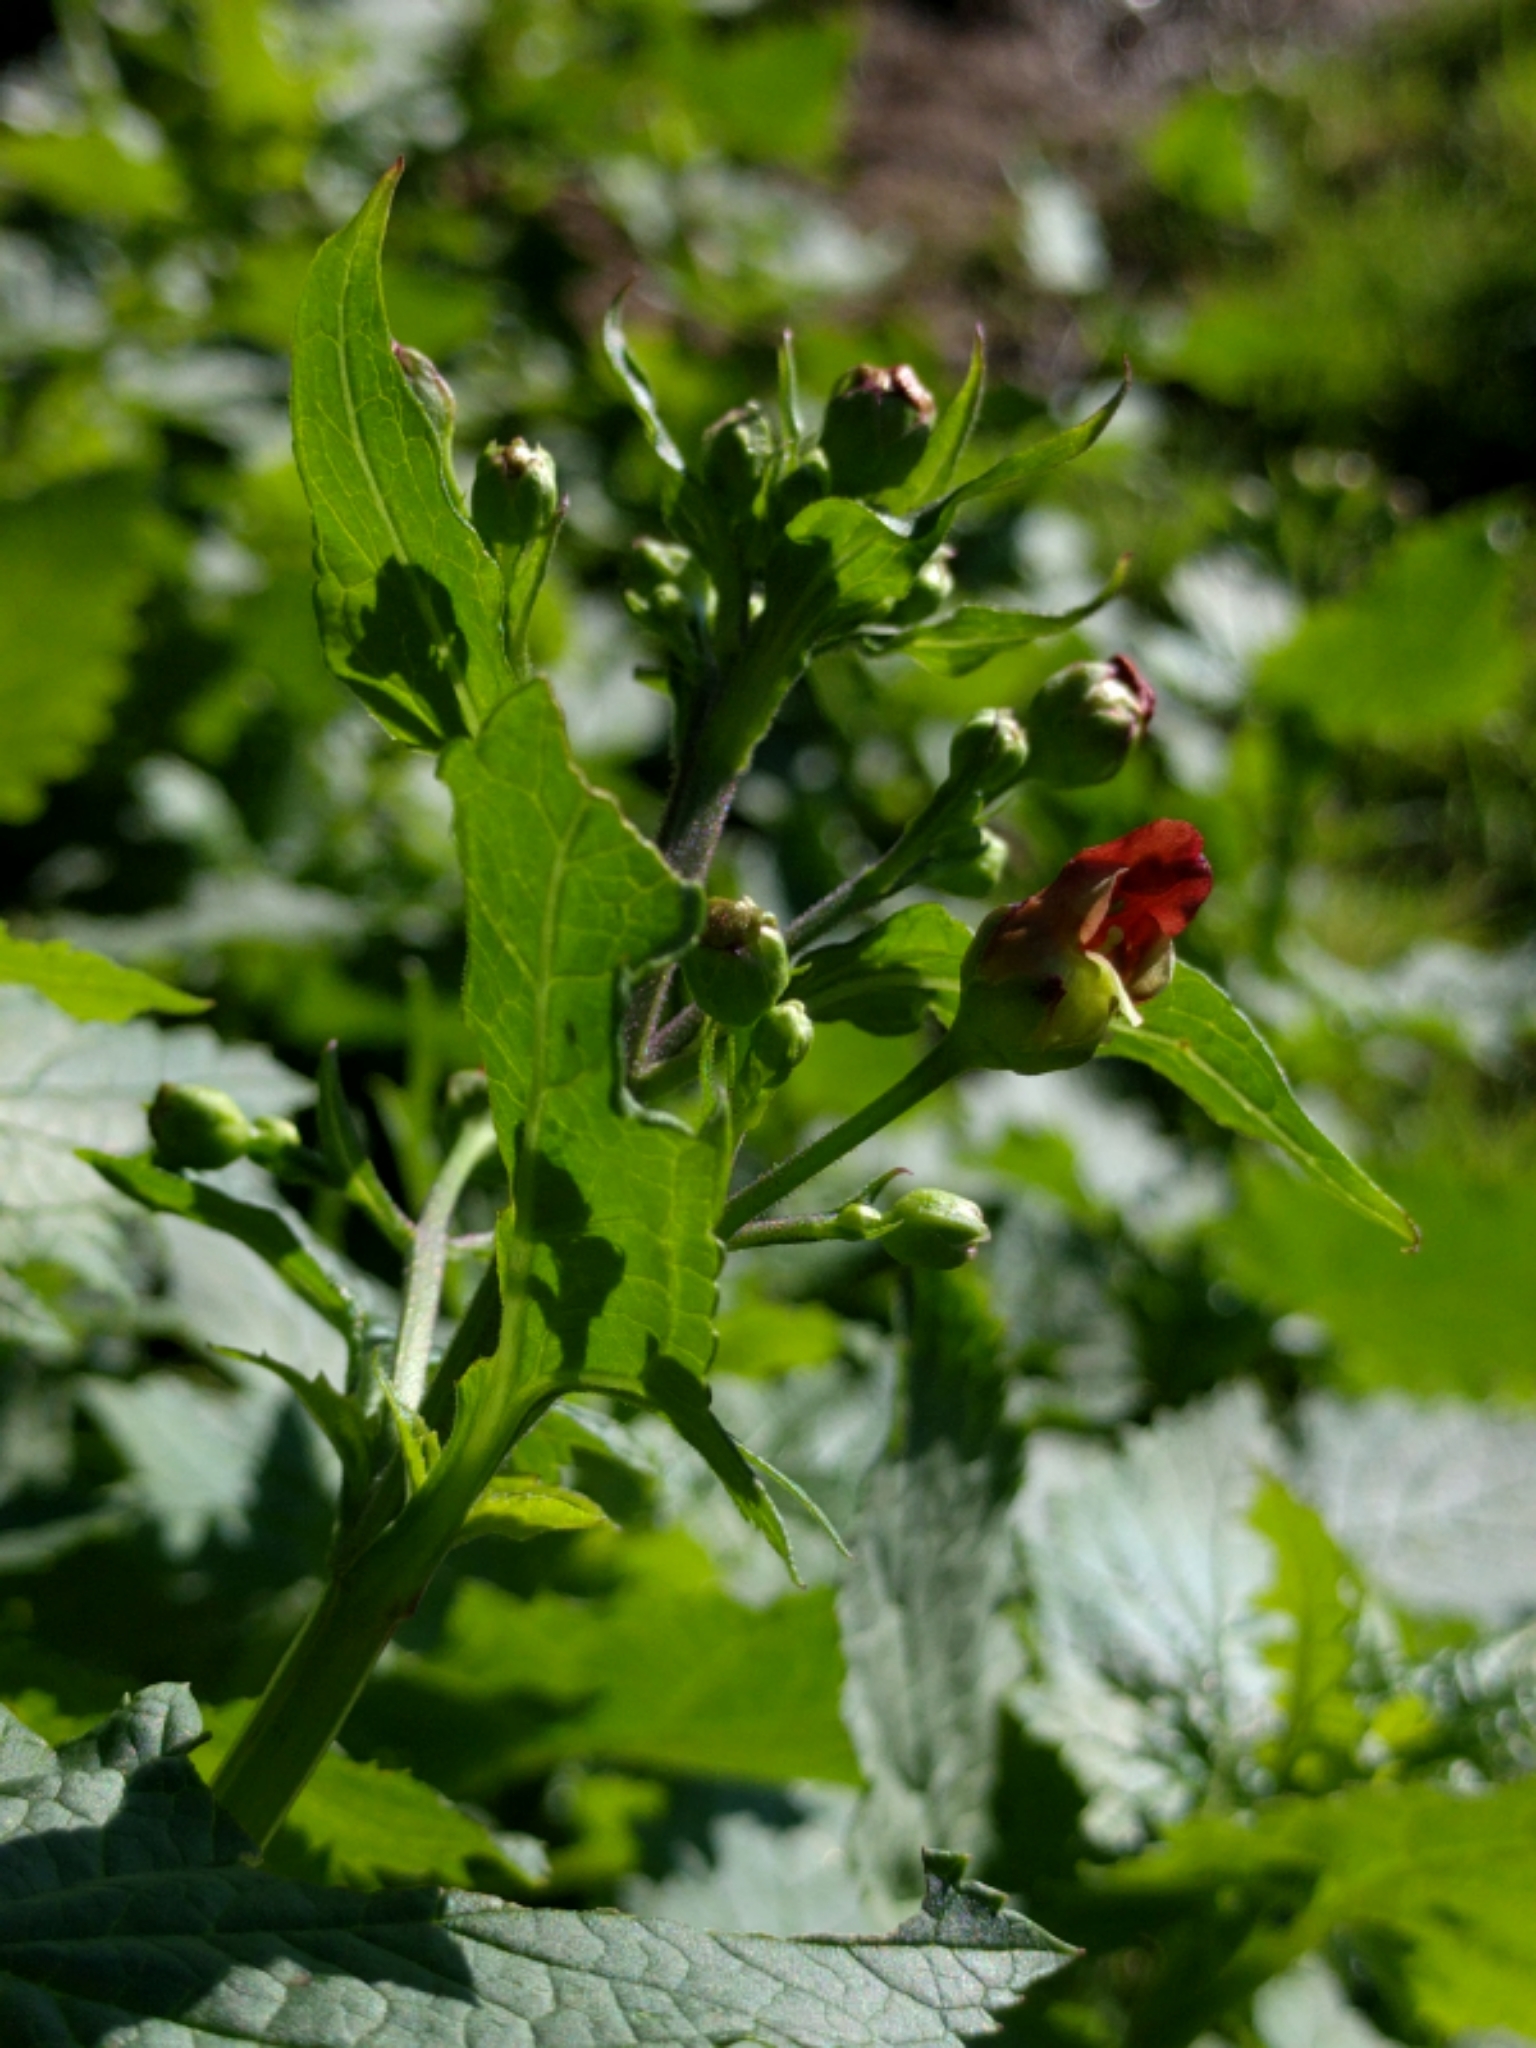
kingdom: Plantae
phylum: Tracheophyta
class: Magnoliopsida
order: Lamiales
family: Scrophulariaceae
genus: Scrophularia
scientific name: Scrophularia californica
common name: California figwort
